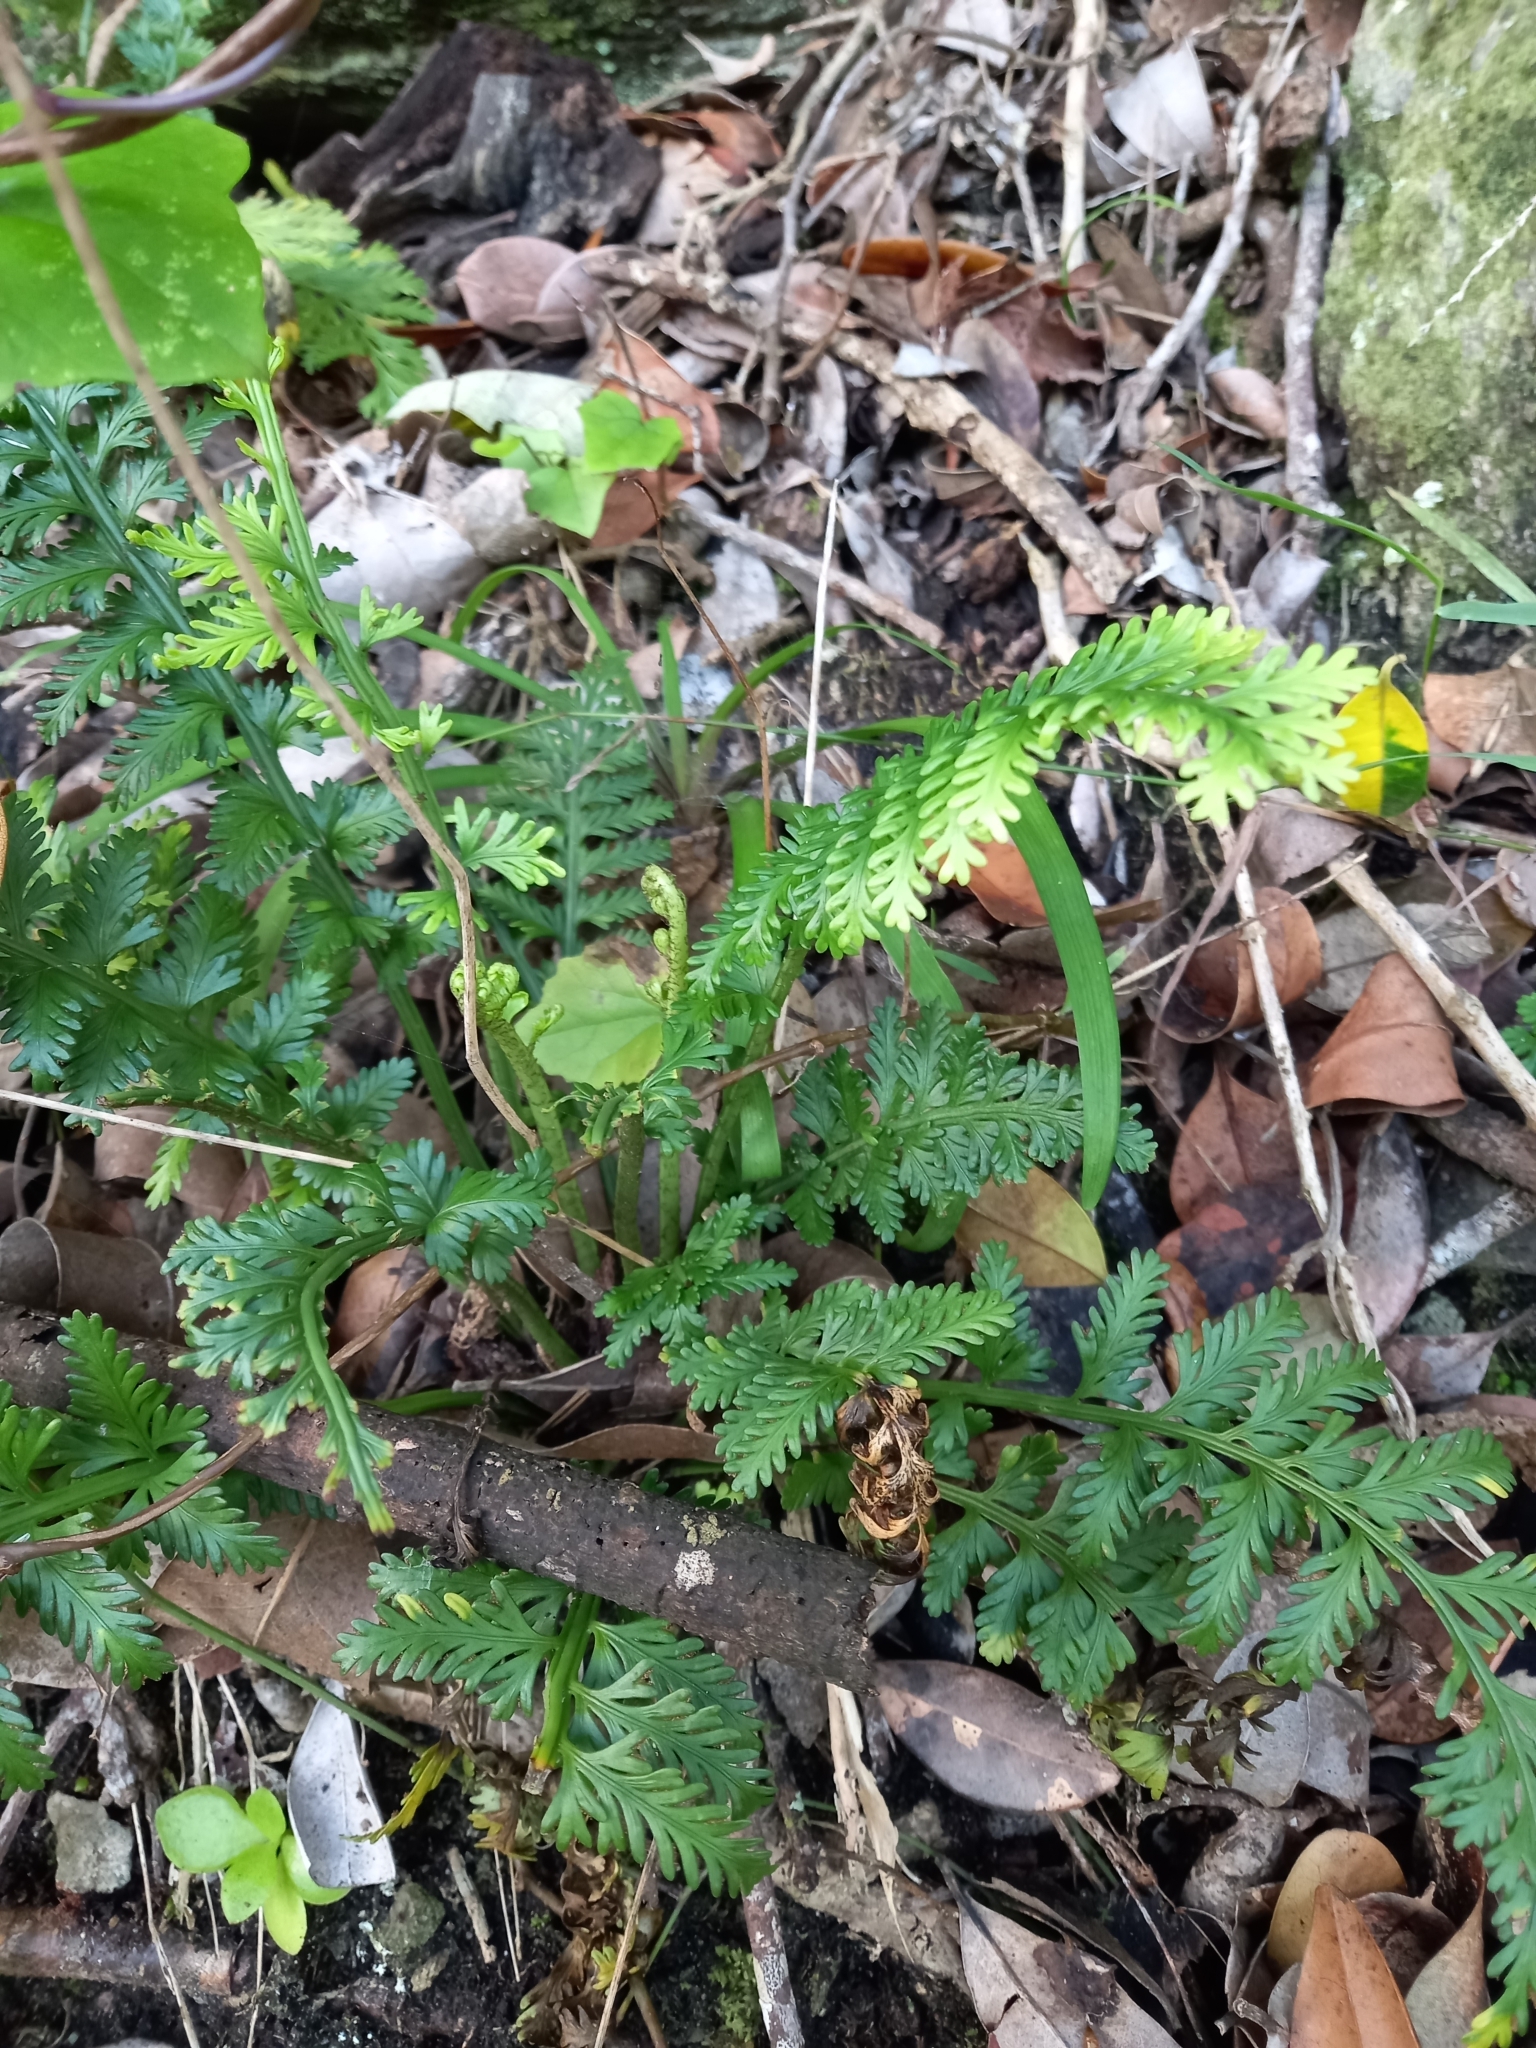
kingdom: Plantae
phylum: Tracheophyta
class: Polypodiopsida
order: Polypodiales
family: Aspleniaceae
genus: Asplenium
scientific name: Asplenium rutifolium
